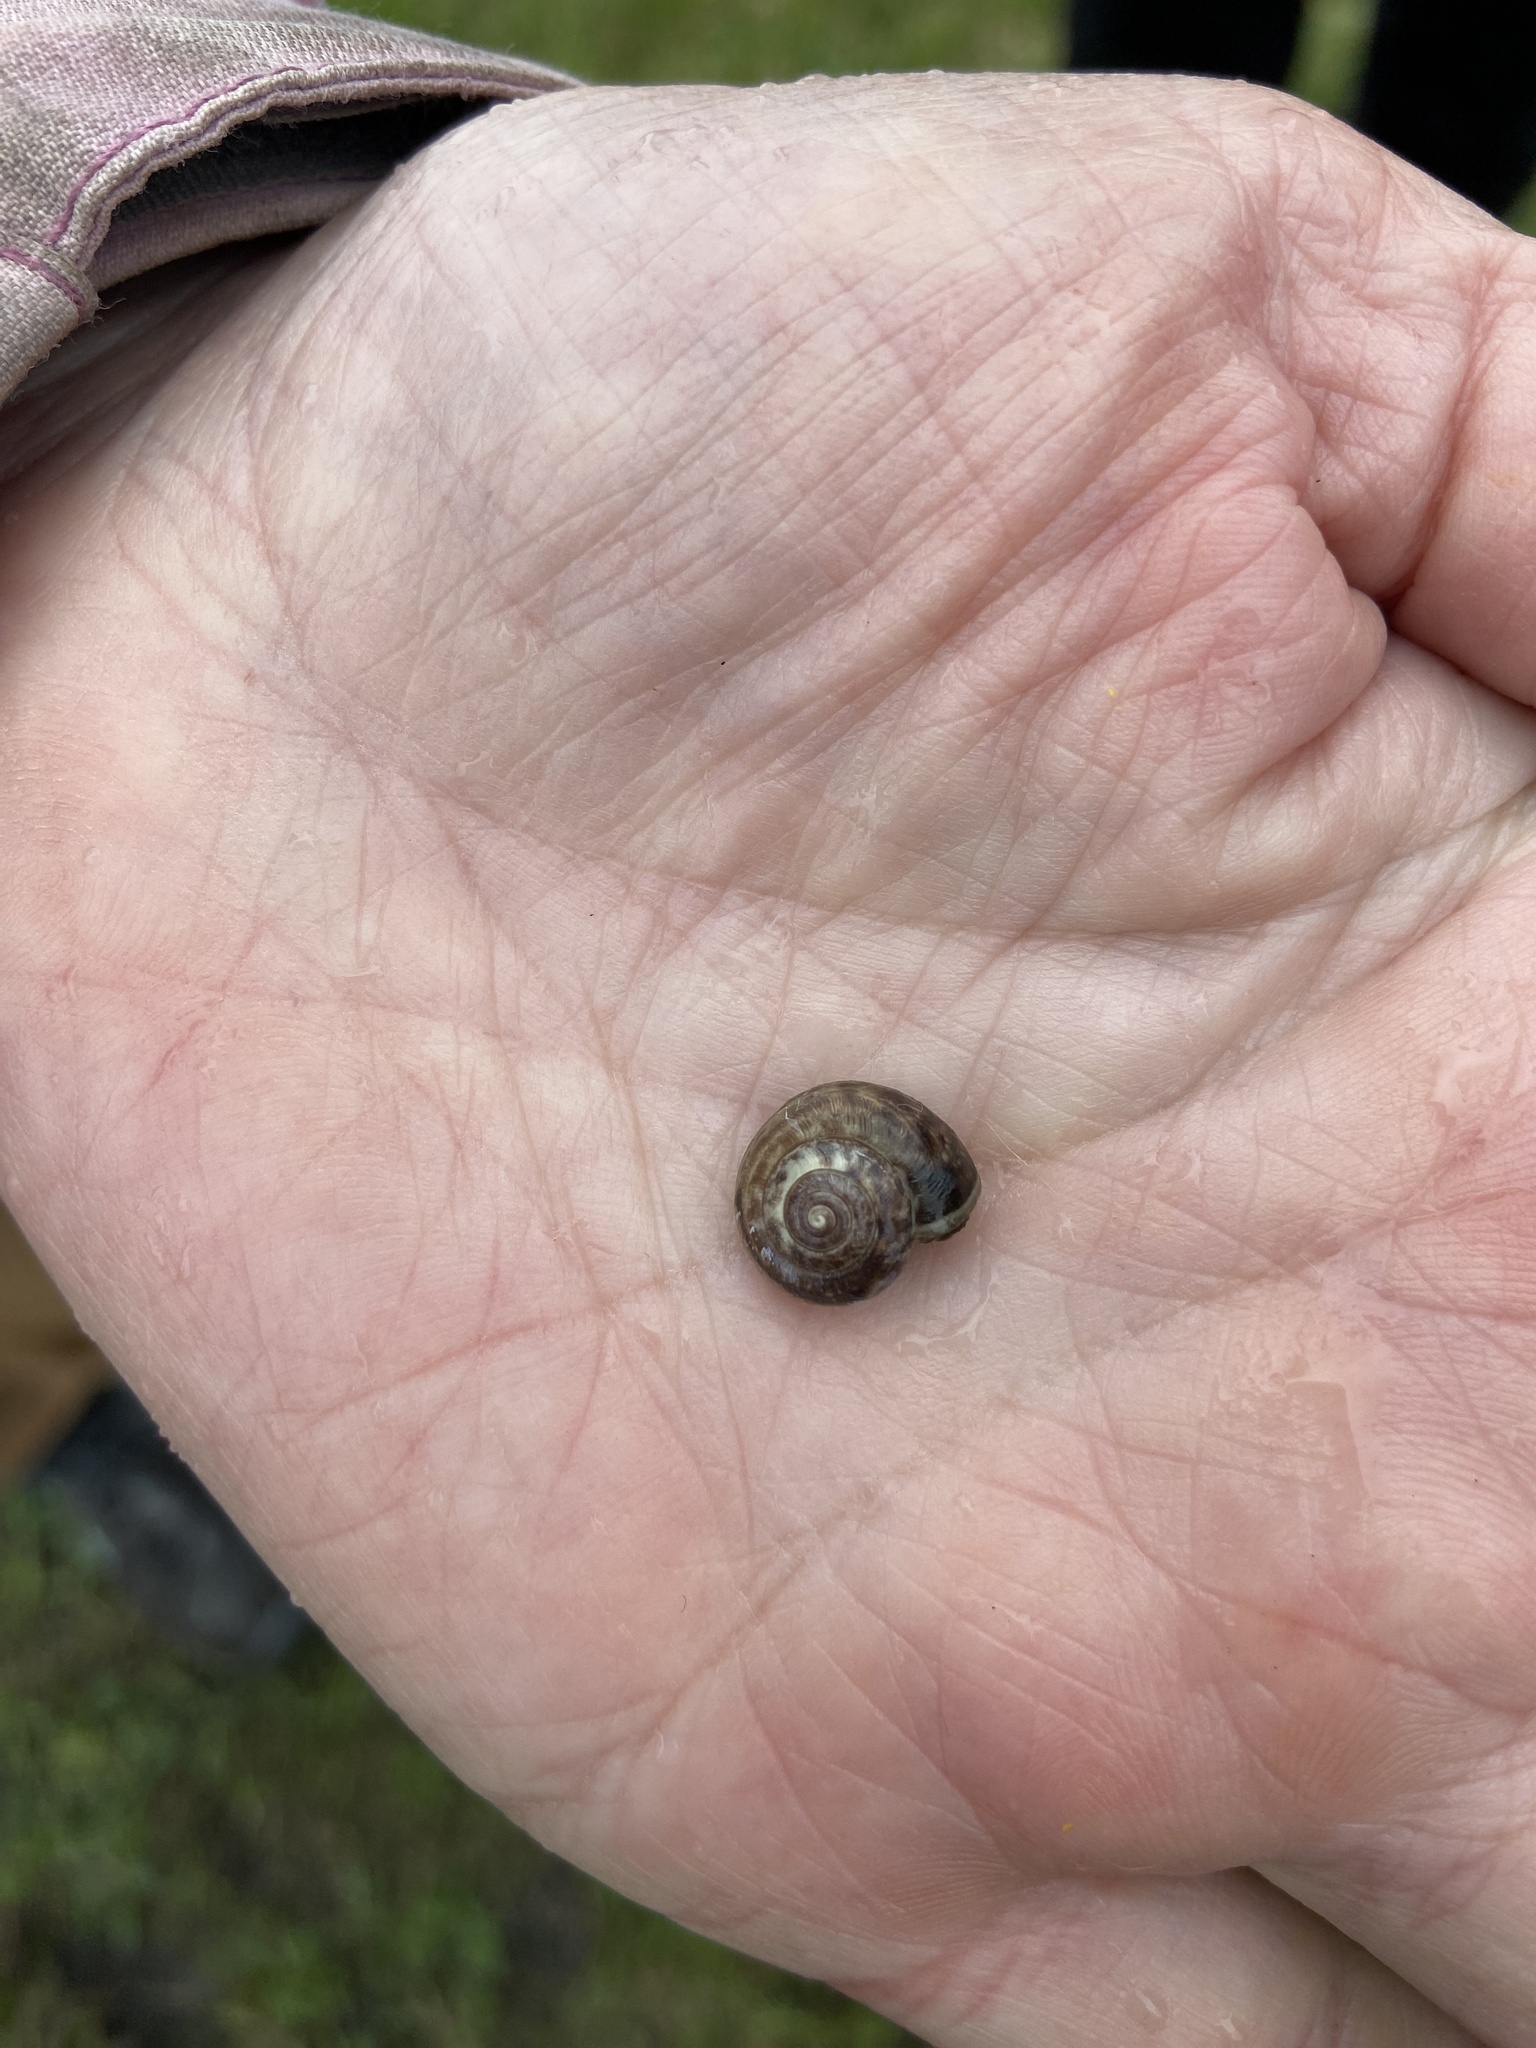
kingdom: Animalia
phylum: Mollusca
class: Gastropoda
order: Stylommatophora
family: Hygromiidae
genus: Monacha
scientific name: Monacha cantiana
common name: Kentish snail
